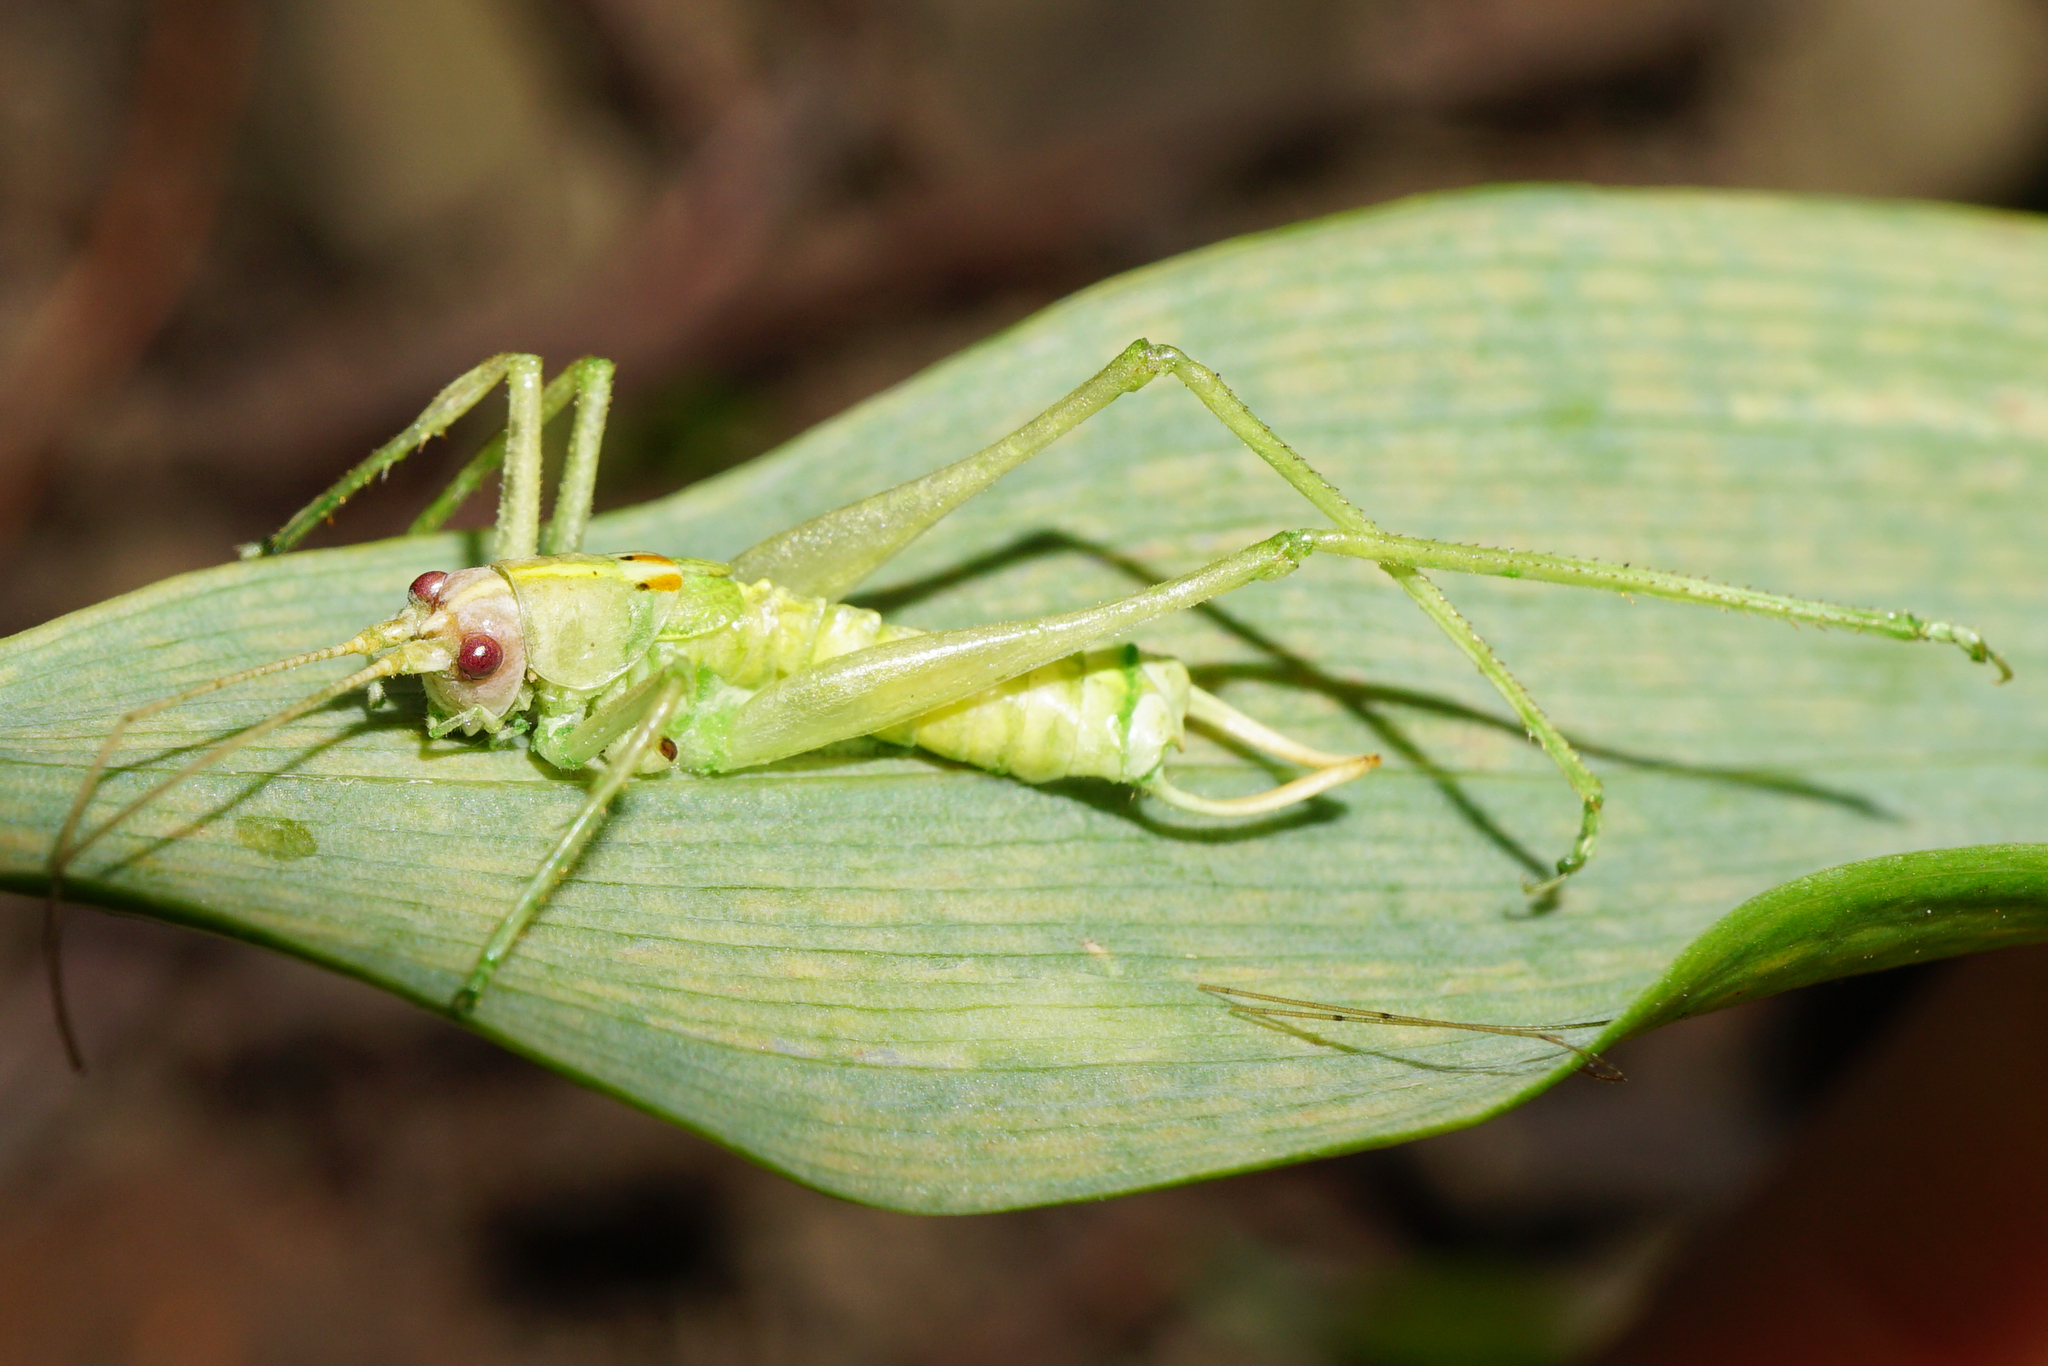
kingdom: Animalia
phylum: Arthropoda
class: Insecta
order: Orthoptera
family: Tettigoniidae
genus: Meconema
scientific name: Meconema meridionale
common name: Southern oak bush-cricket
